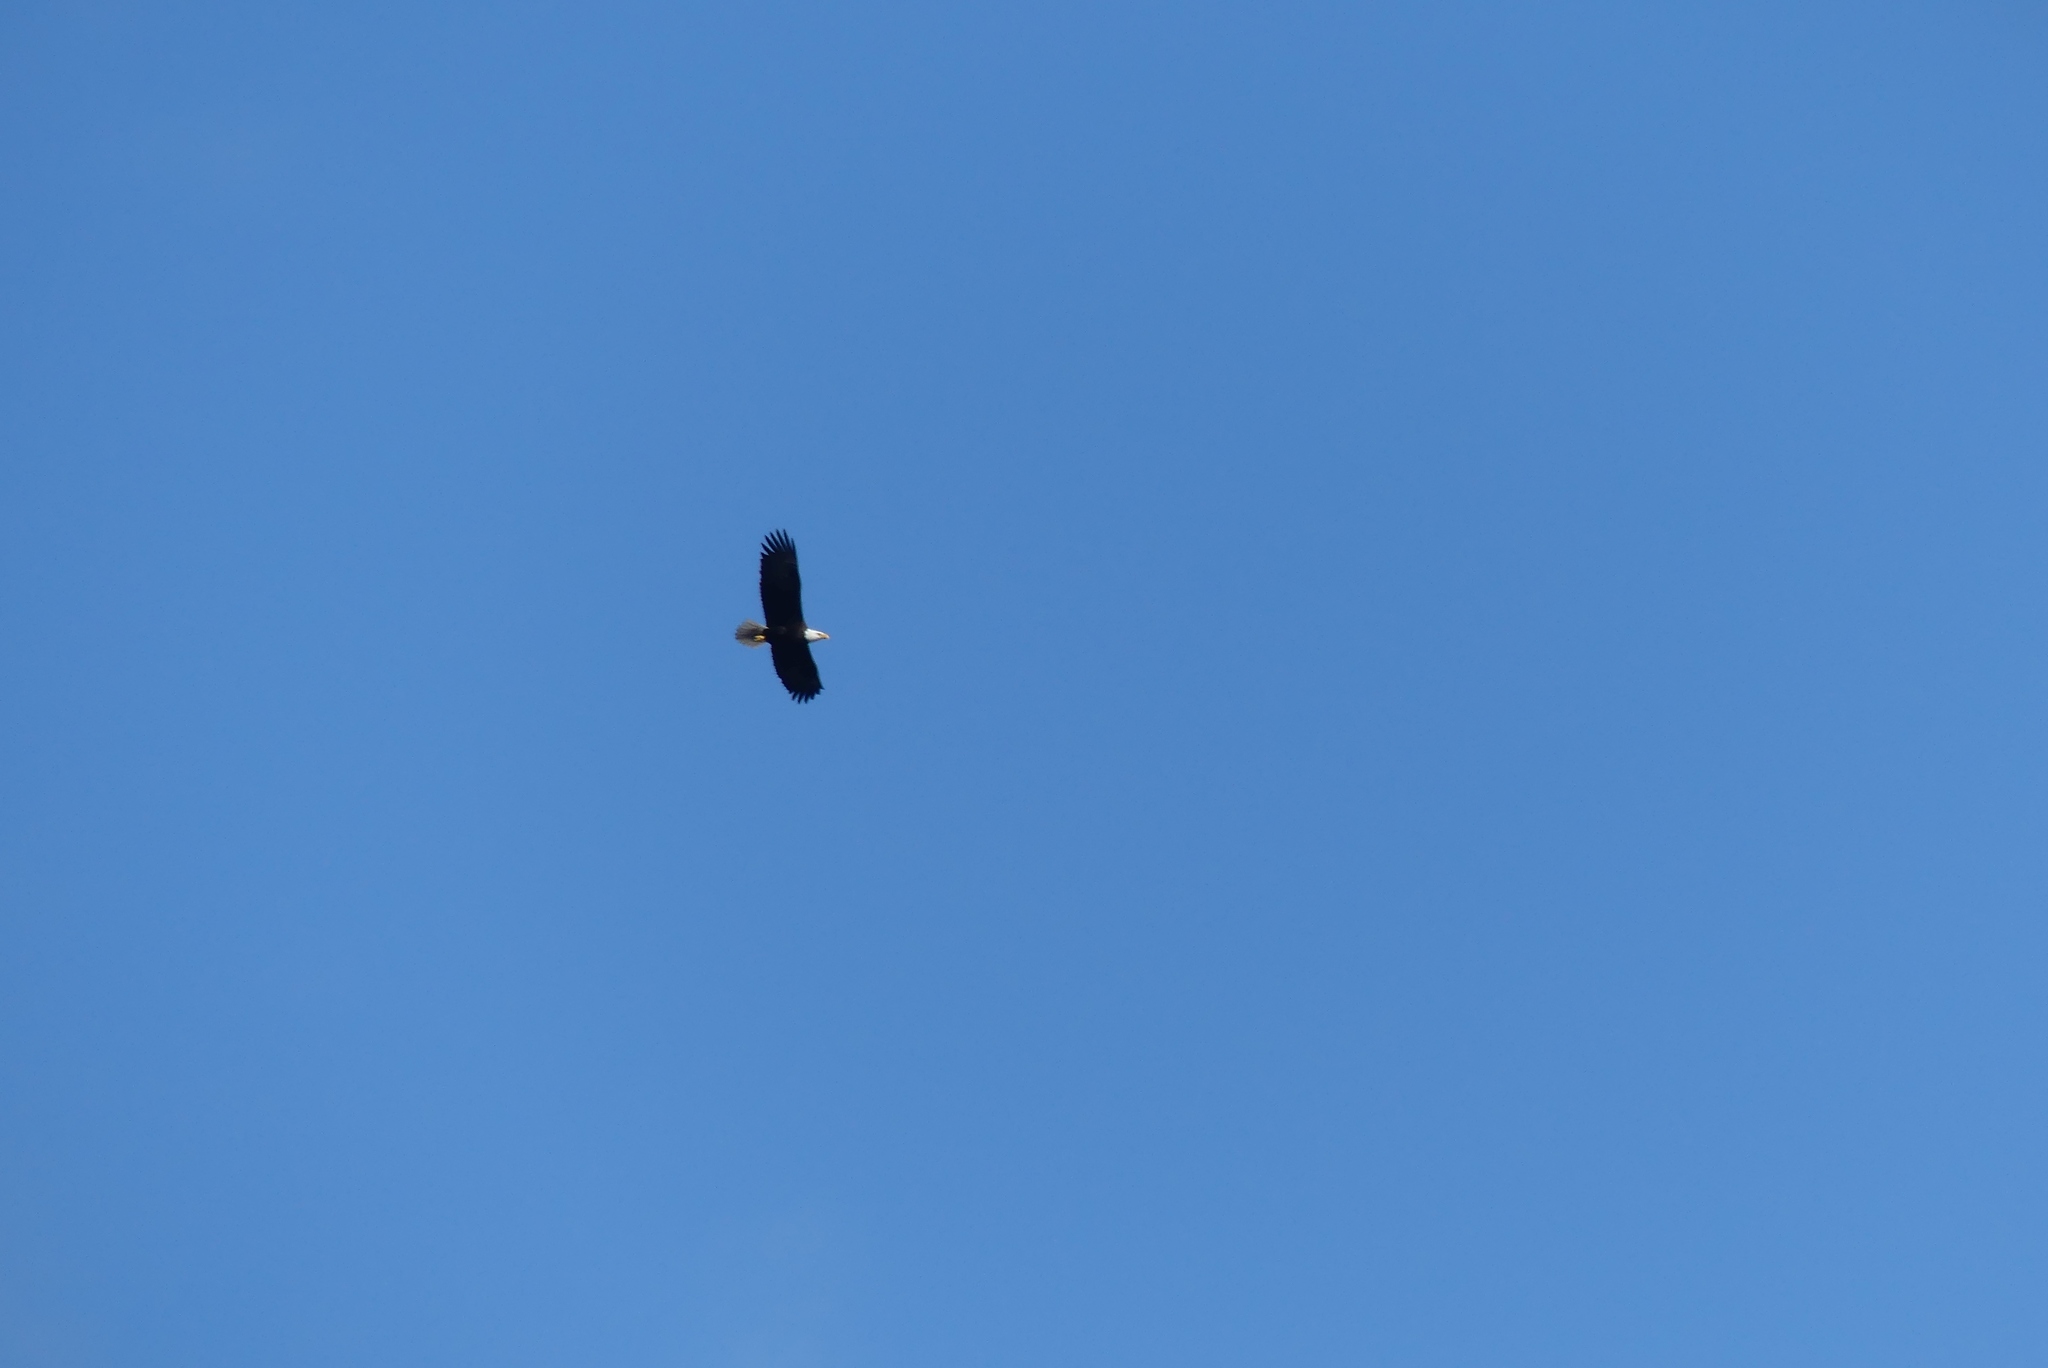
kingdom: Animalia
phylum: Chordata
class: Aves
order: Accipitriformes
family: Accipitridae
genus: Haliaeetus
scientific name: Haliaeetus leucocephalus
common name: Bald eagle
